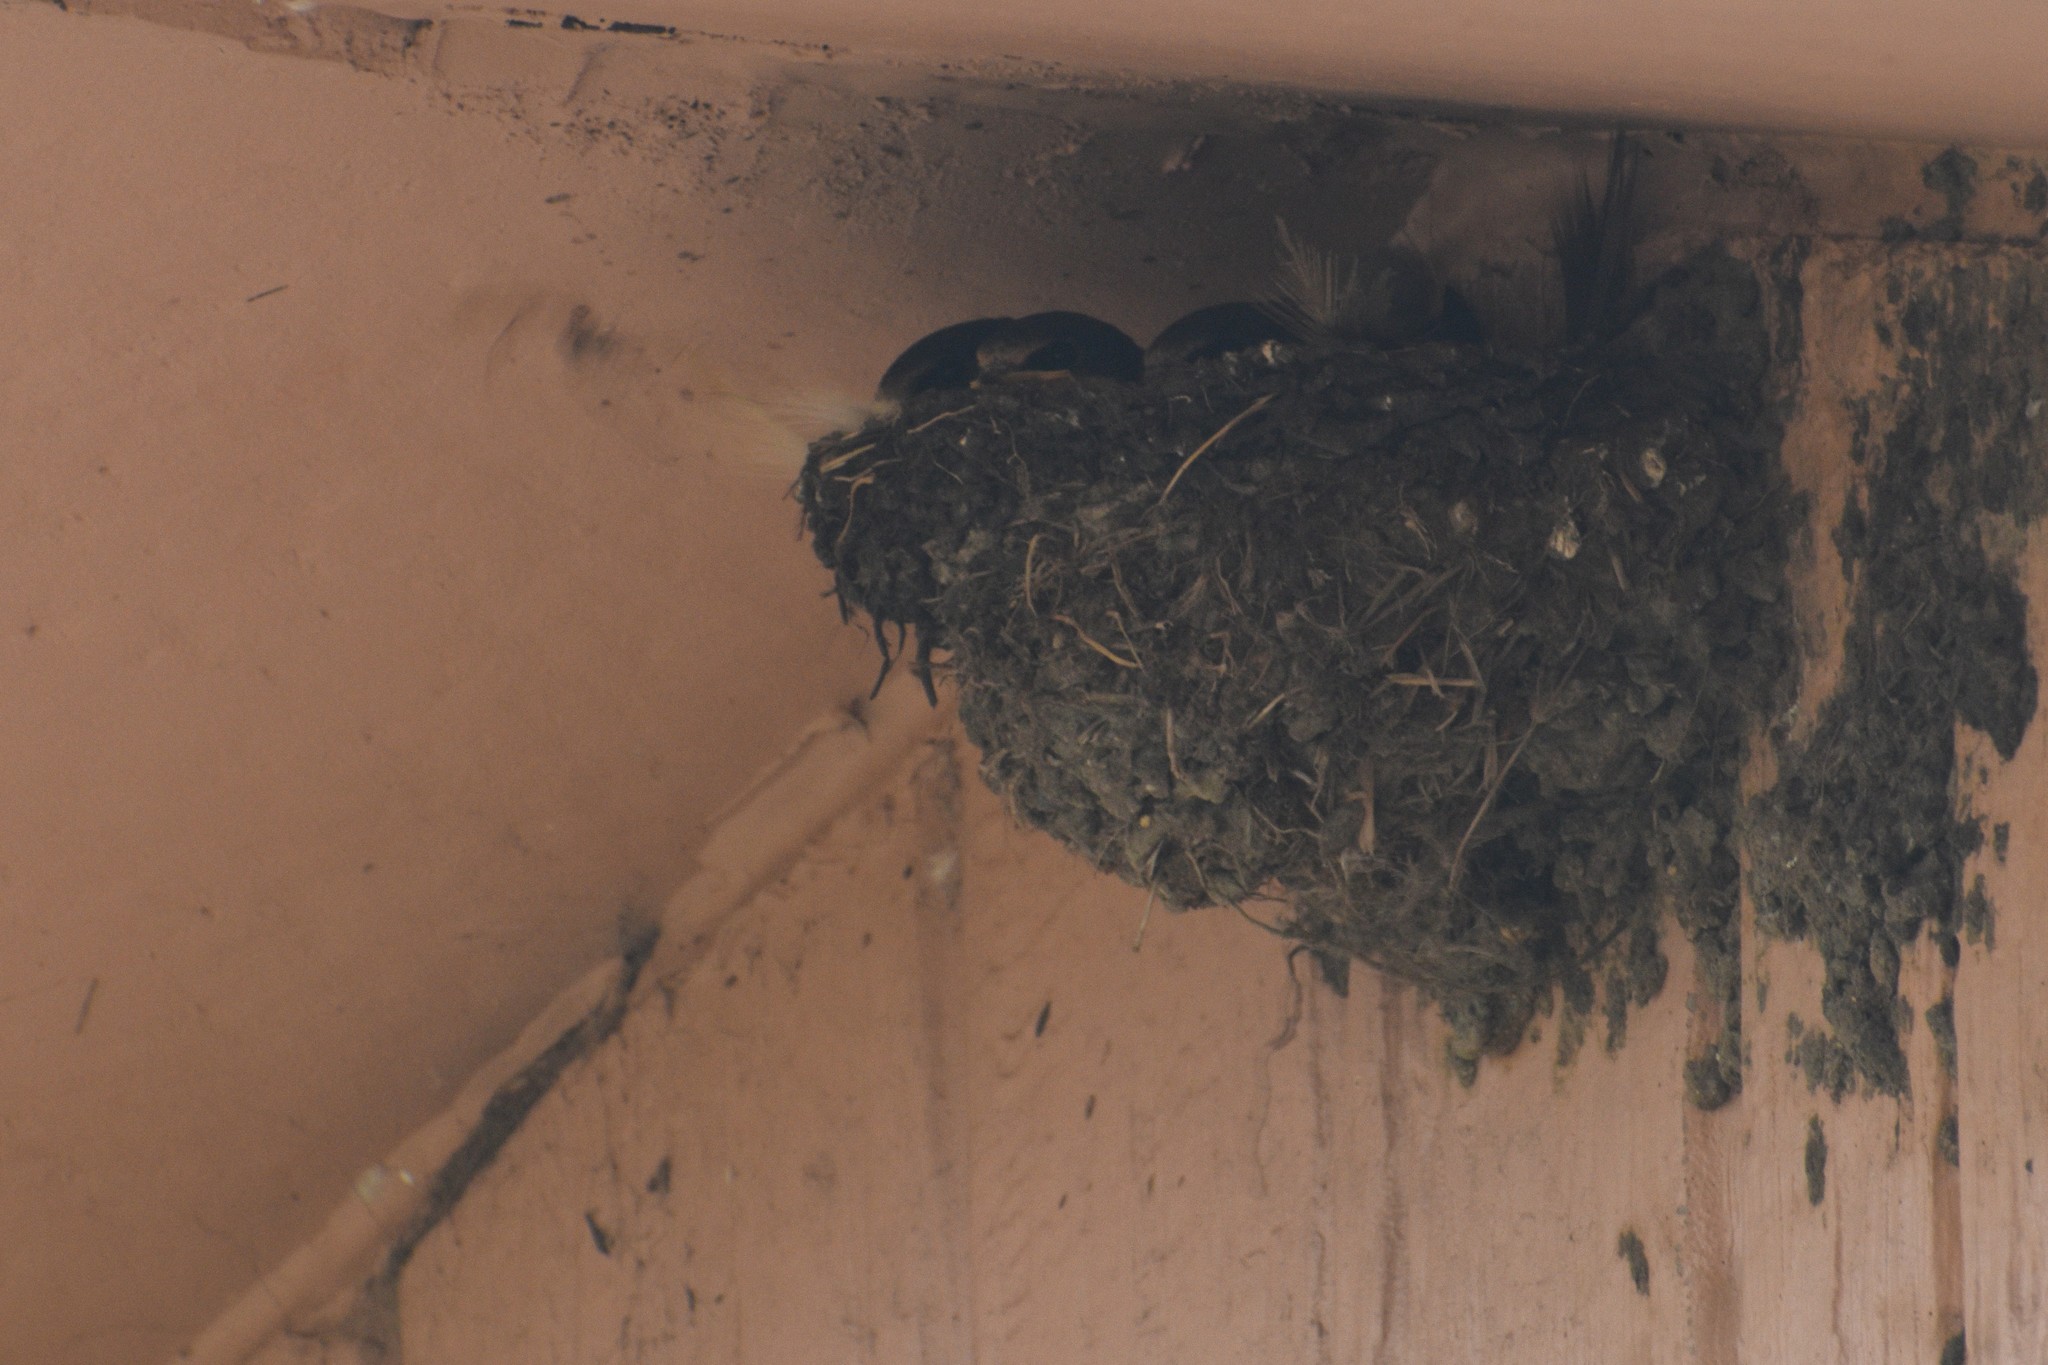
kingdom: Animalia
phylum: Chordata
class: Aves
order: Passeriformes
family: Hirundinidae
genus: Hirundo
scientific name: Hirundo rustica
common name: Barn swallow
